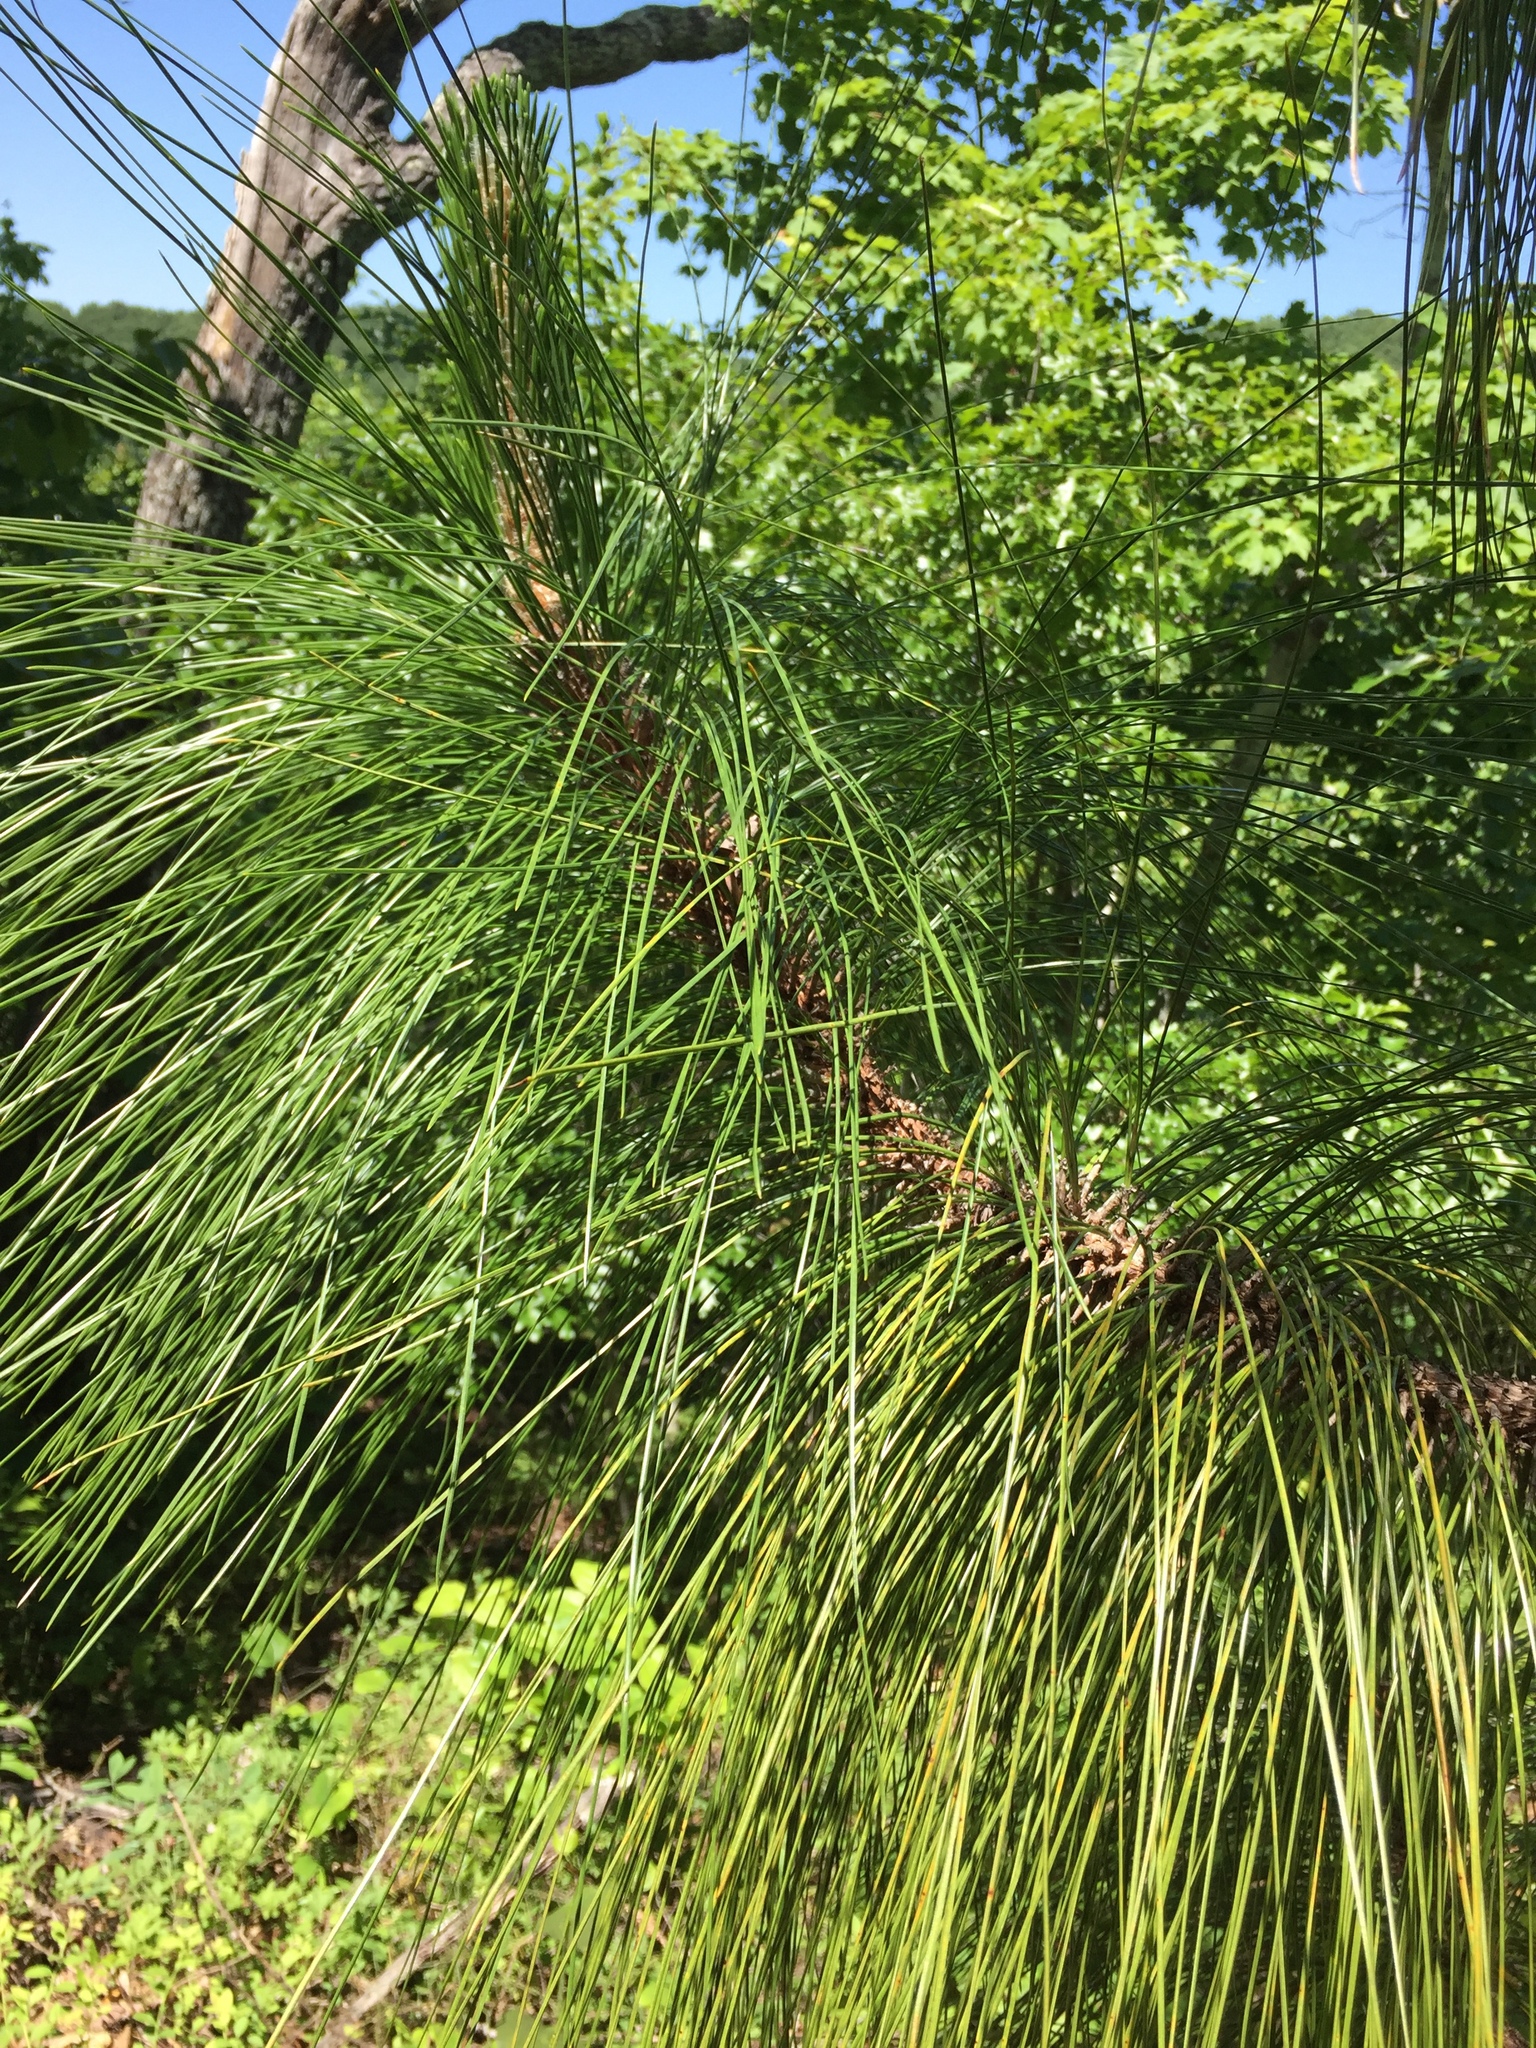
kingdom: Plantae
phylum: Tracheophyta
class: Pinopsida
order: Pinales
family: Pinaceae
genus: Pinus
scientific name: Pinus palustris
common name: Longleaf pine
